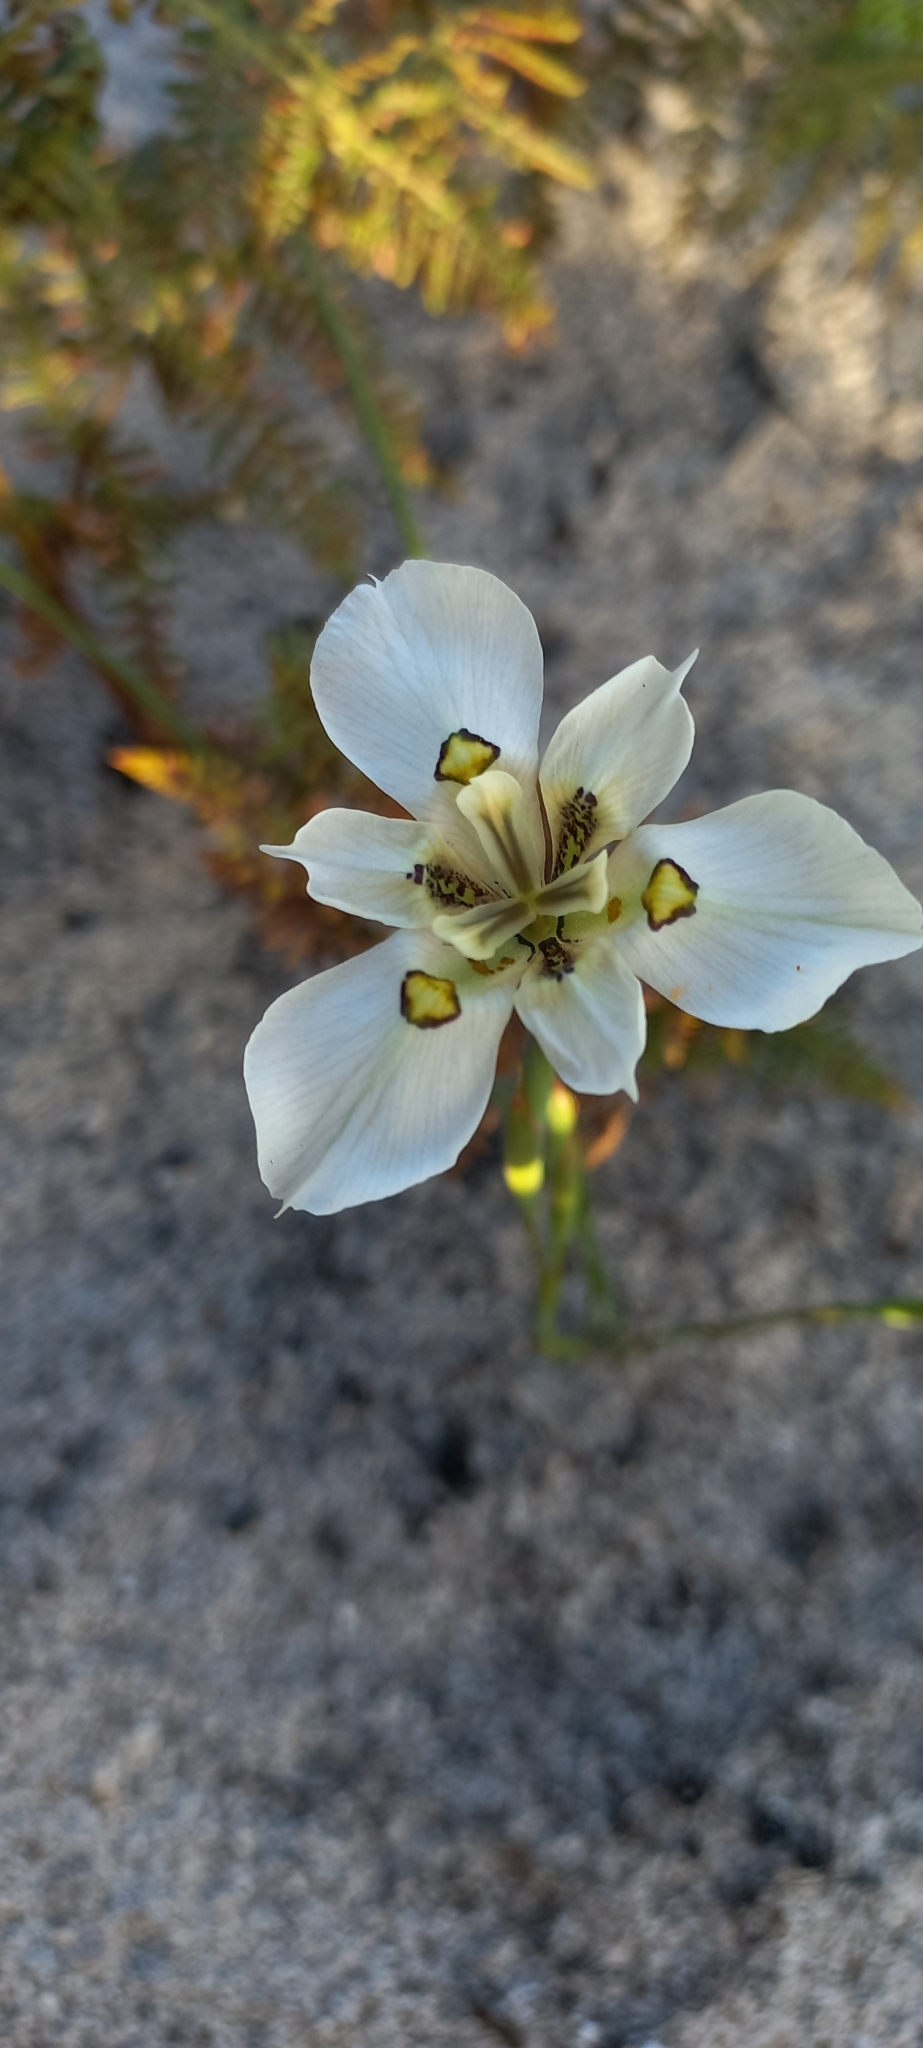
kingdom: Plantae
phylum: Tracheophyta
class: Liliopsida
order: Asparagales
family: Iridaceae
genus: Moraea
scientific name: Moraea cantharophila
